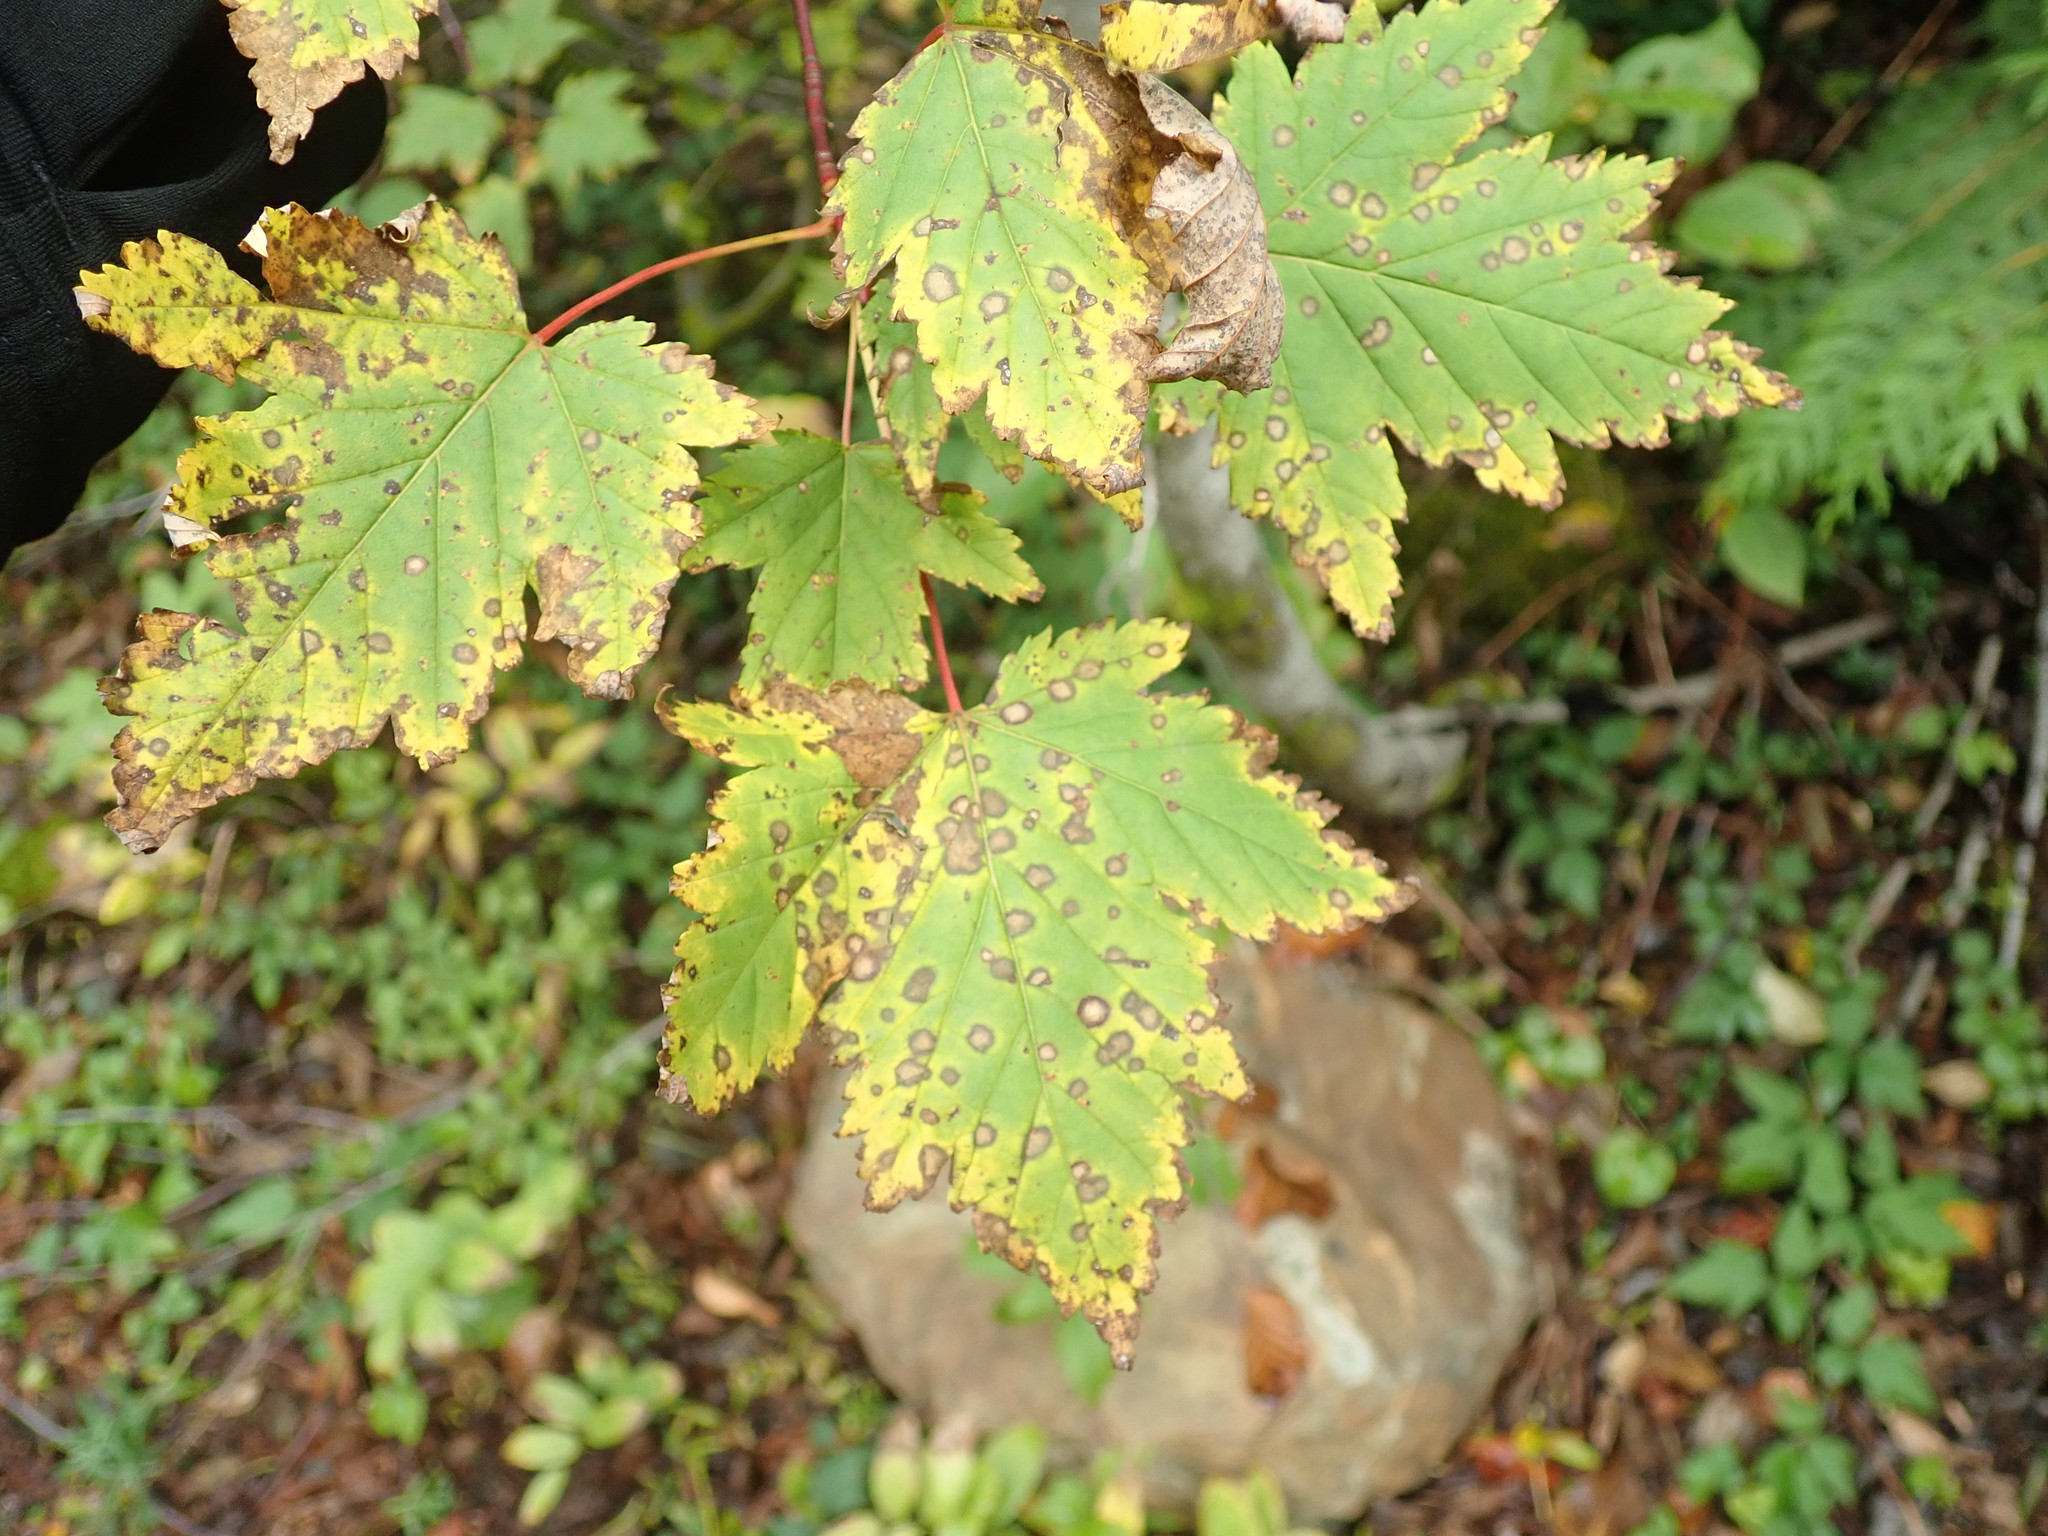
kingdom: Plantae
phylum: Tracheophyta
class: Magnoliopsida
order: Sapindales
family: Sapindaceae
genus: Acer
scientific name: Acer glabrum
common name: Rocky mountain maple
